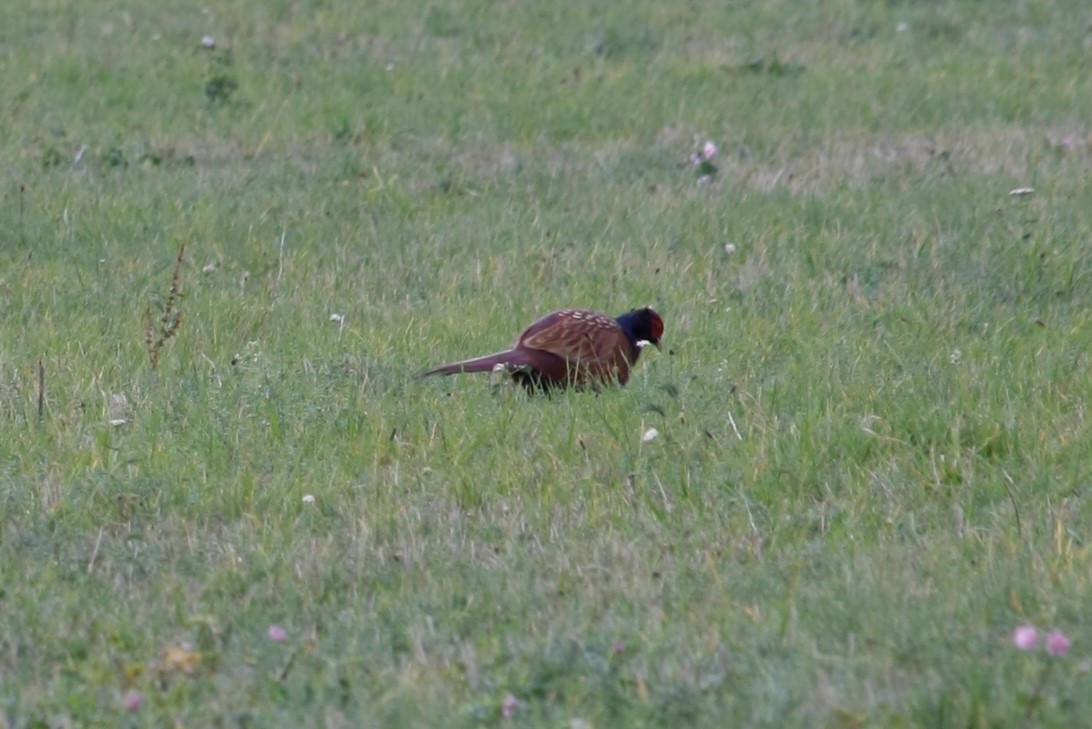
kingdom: Animalia
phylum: Chordata
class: Aves
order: Galliformes
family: Phasianidae
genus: Phasianus
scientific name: Phasianus colchicus
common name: Common pheasant
